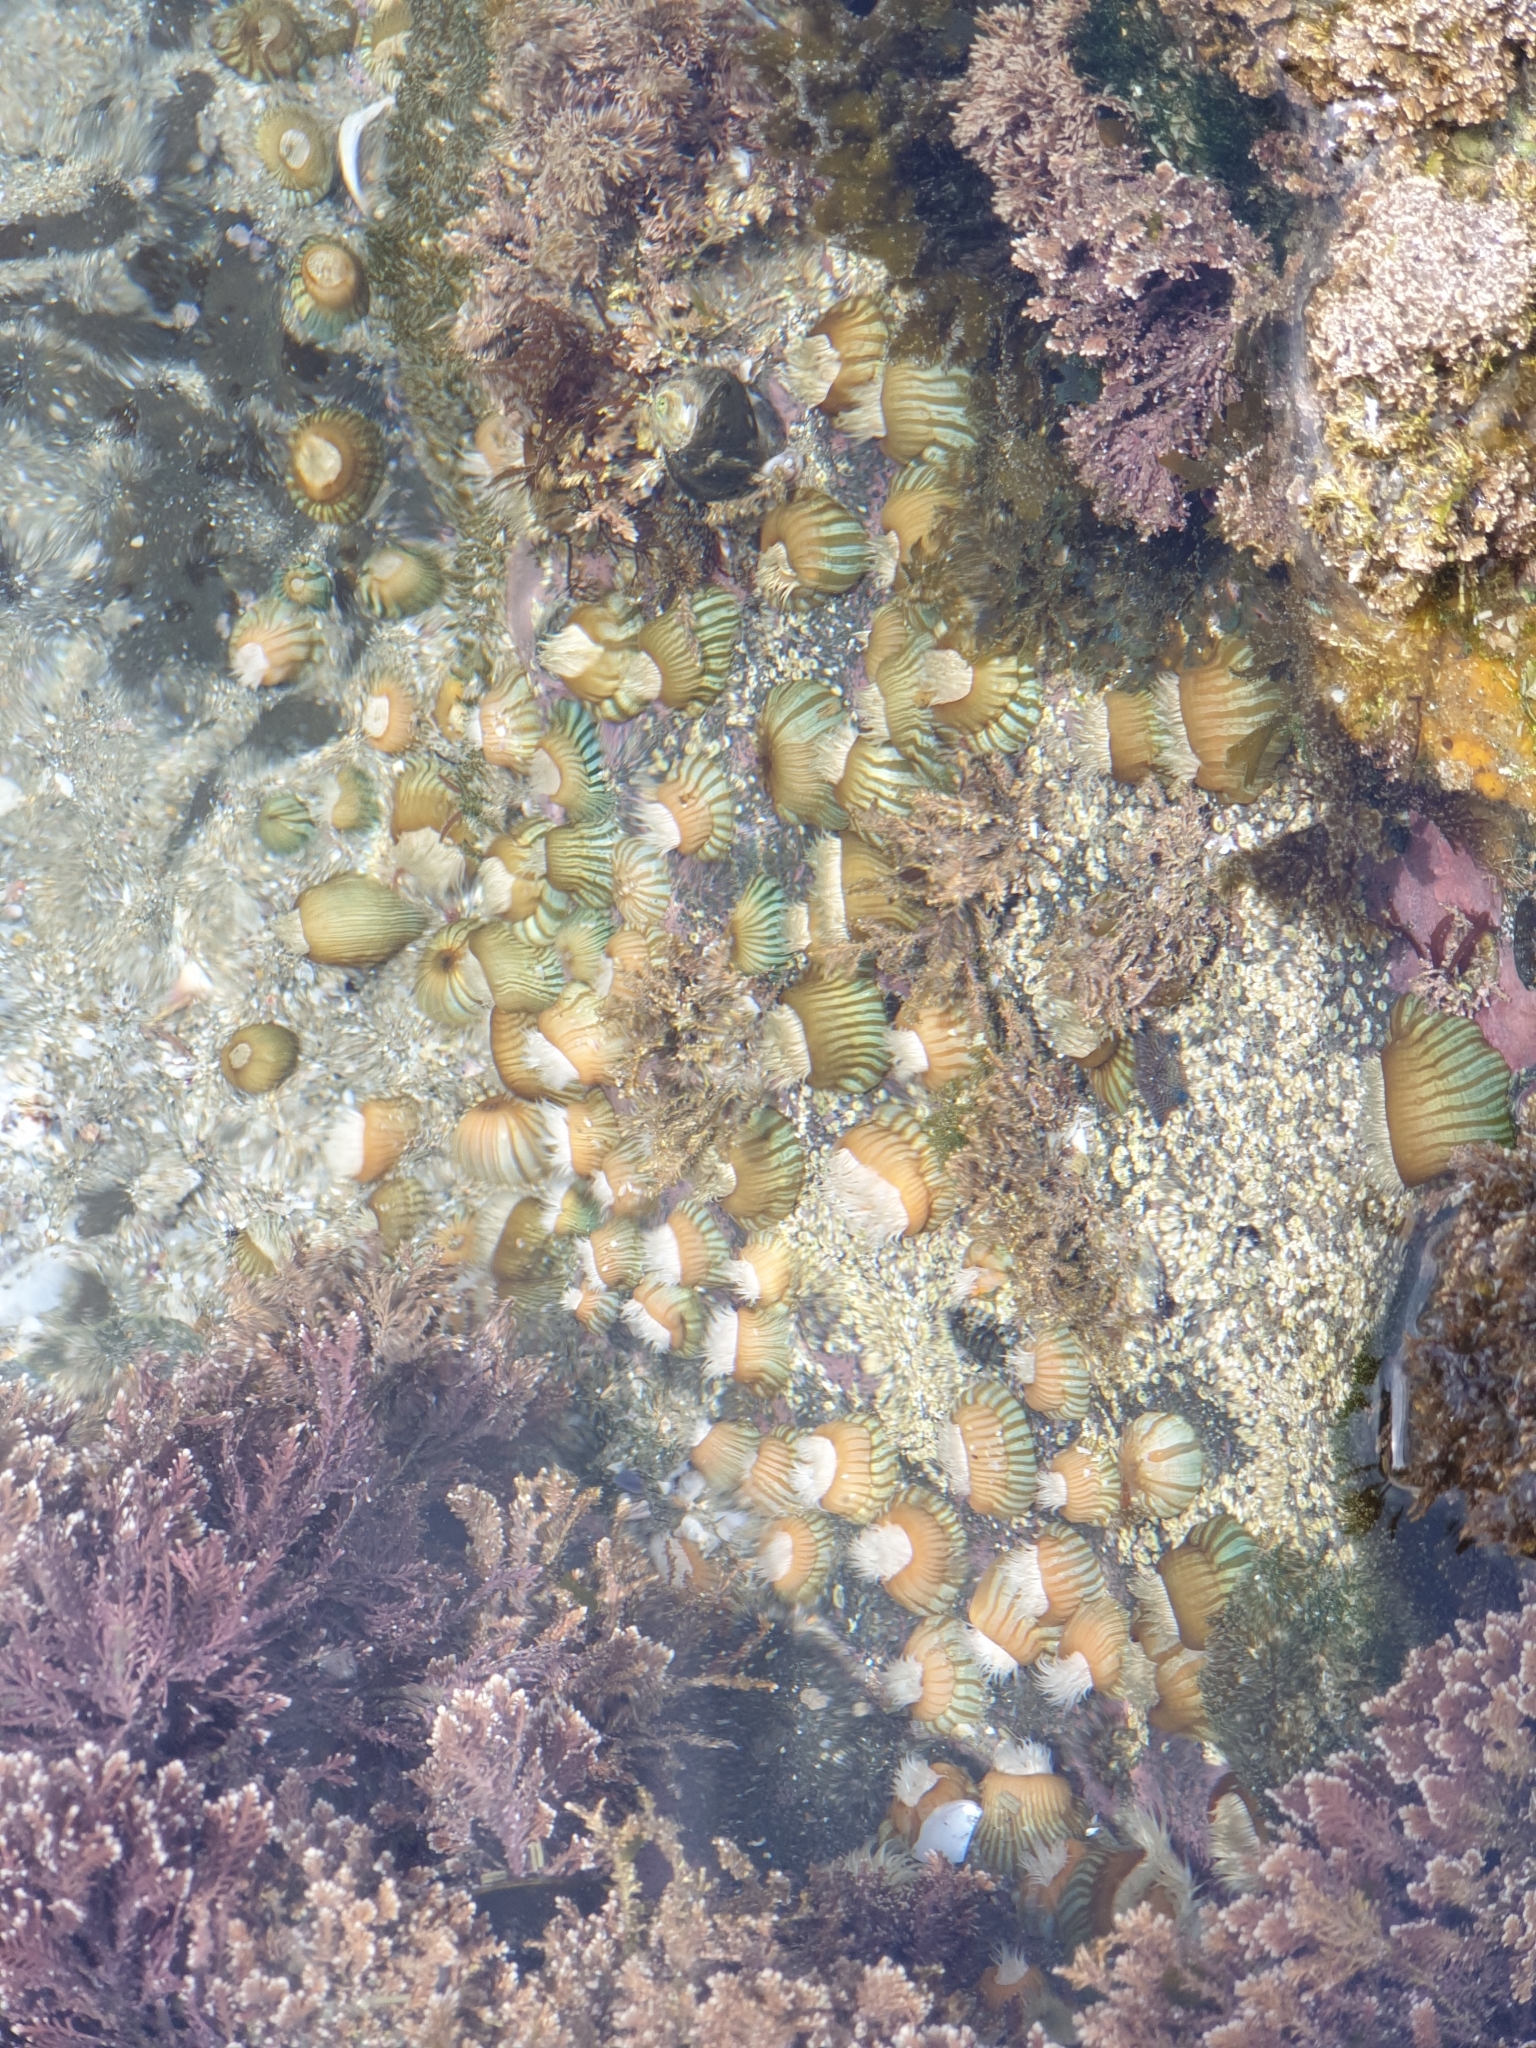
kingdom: Animalia
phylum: Cnidaria
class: Anthozoa
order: Actiniaria
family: Sagartiidae
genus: Anthothoe
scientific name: Anthothoe albocincta
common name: Orange striped anemone
